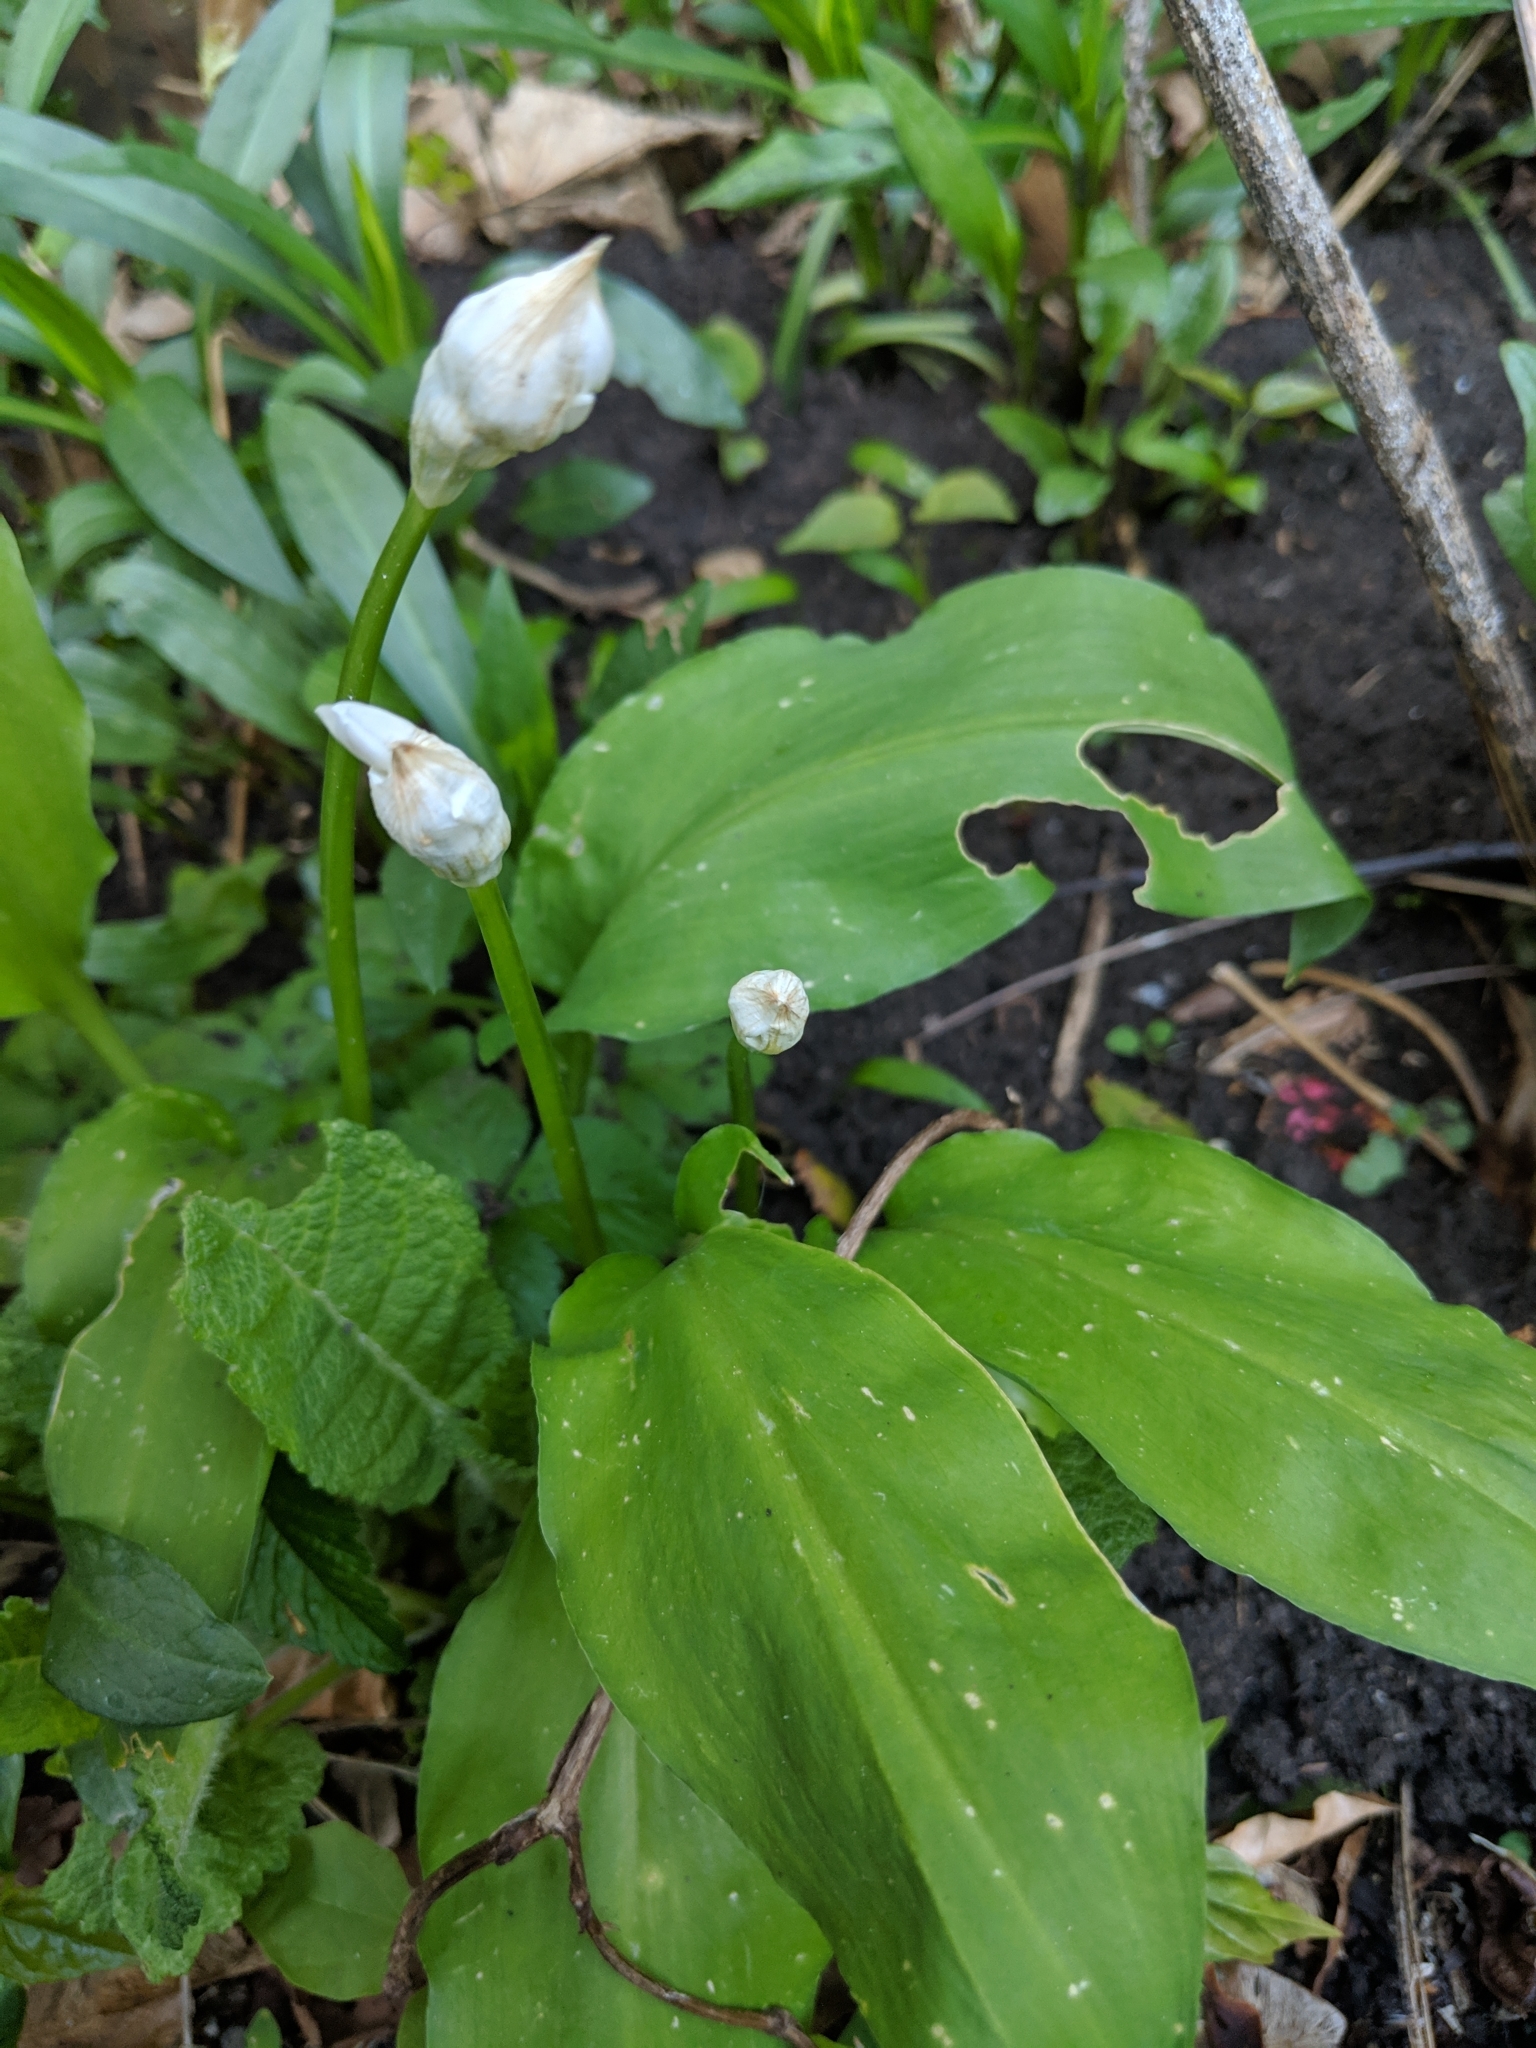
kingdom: Plantae
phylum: Tracheophyta
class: Liliopsida
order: Asparagales
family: Amaryllidaceae
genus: Allium
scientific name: Allium ursinum
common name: Ramsons
